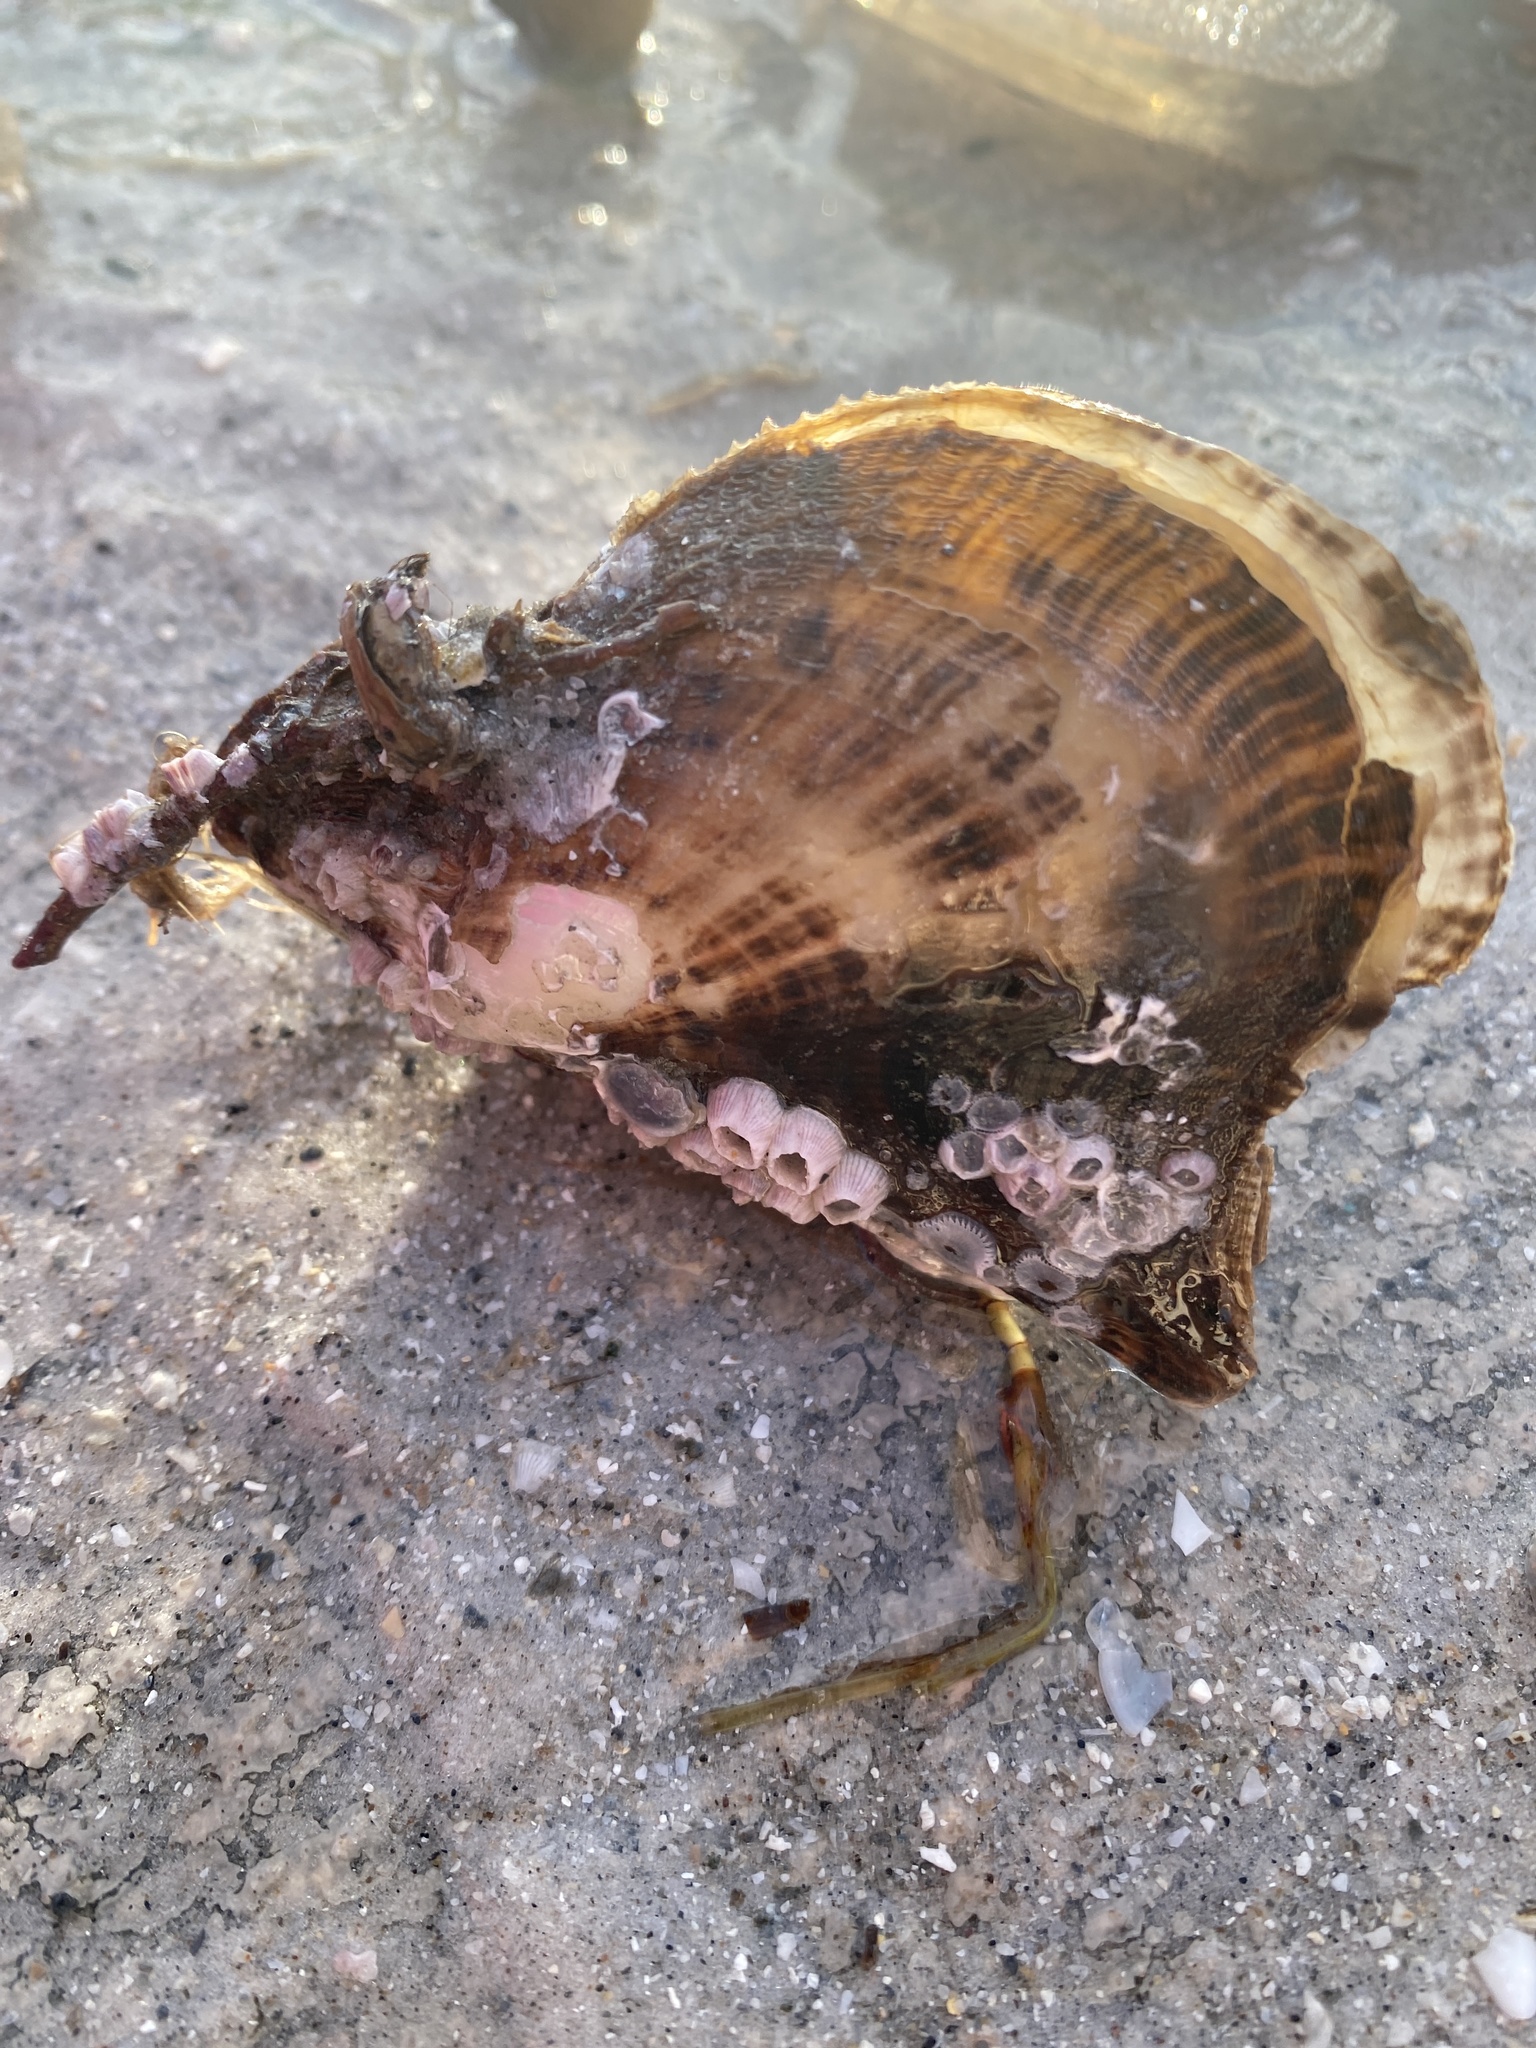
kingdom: Animalia
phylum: Mollusca
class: Bivalvia
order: Ostreida
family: Pteriidae
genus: Pteria
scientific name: Pteria colymbus
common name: Atlantic wing-oyster
